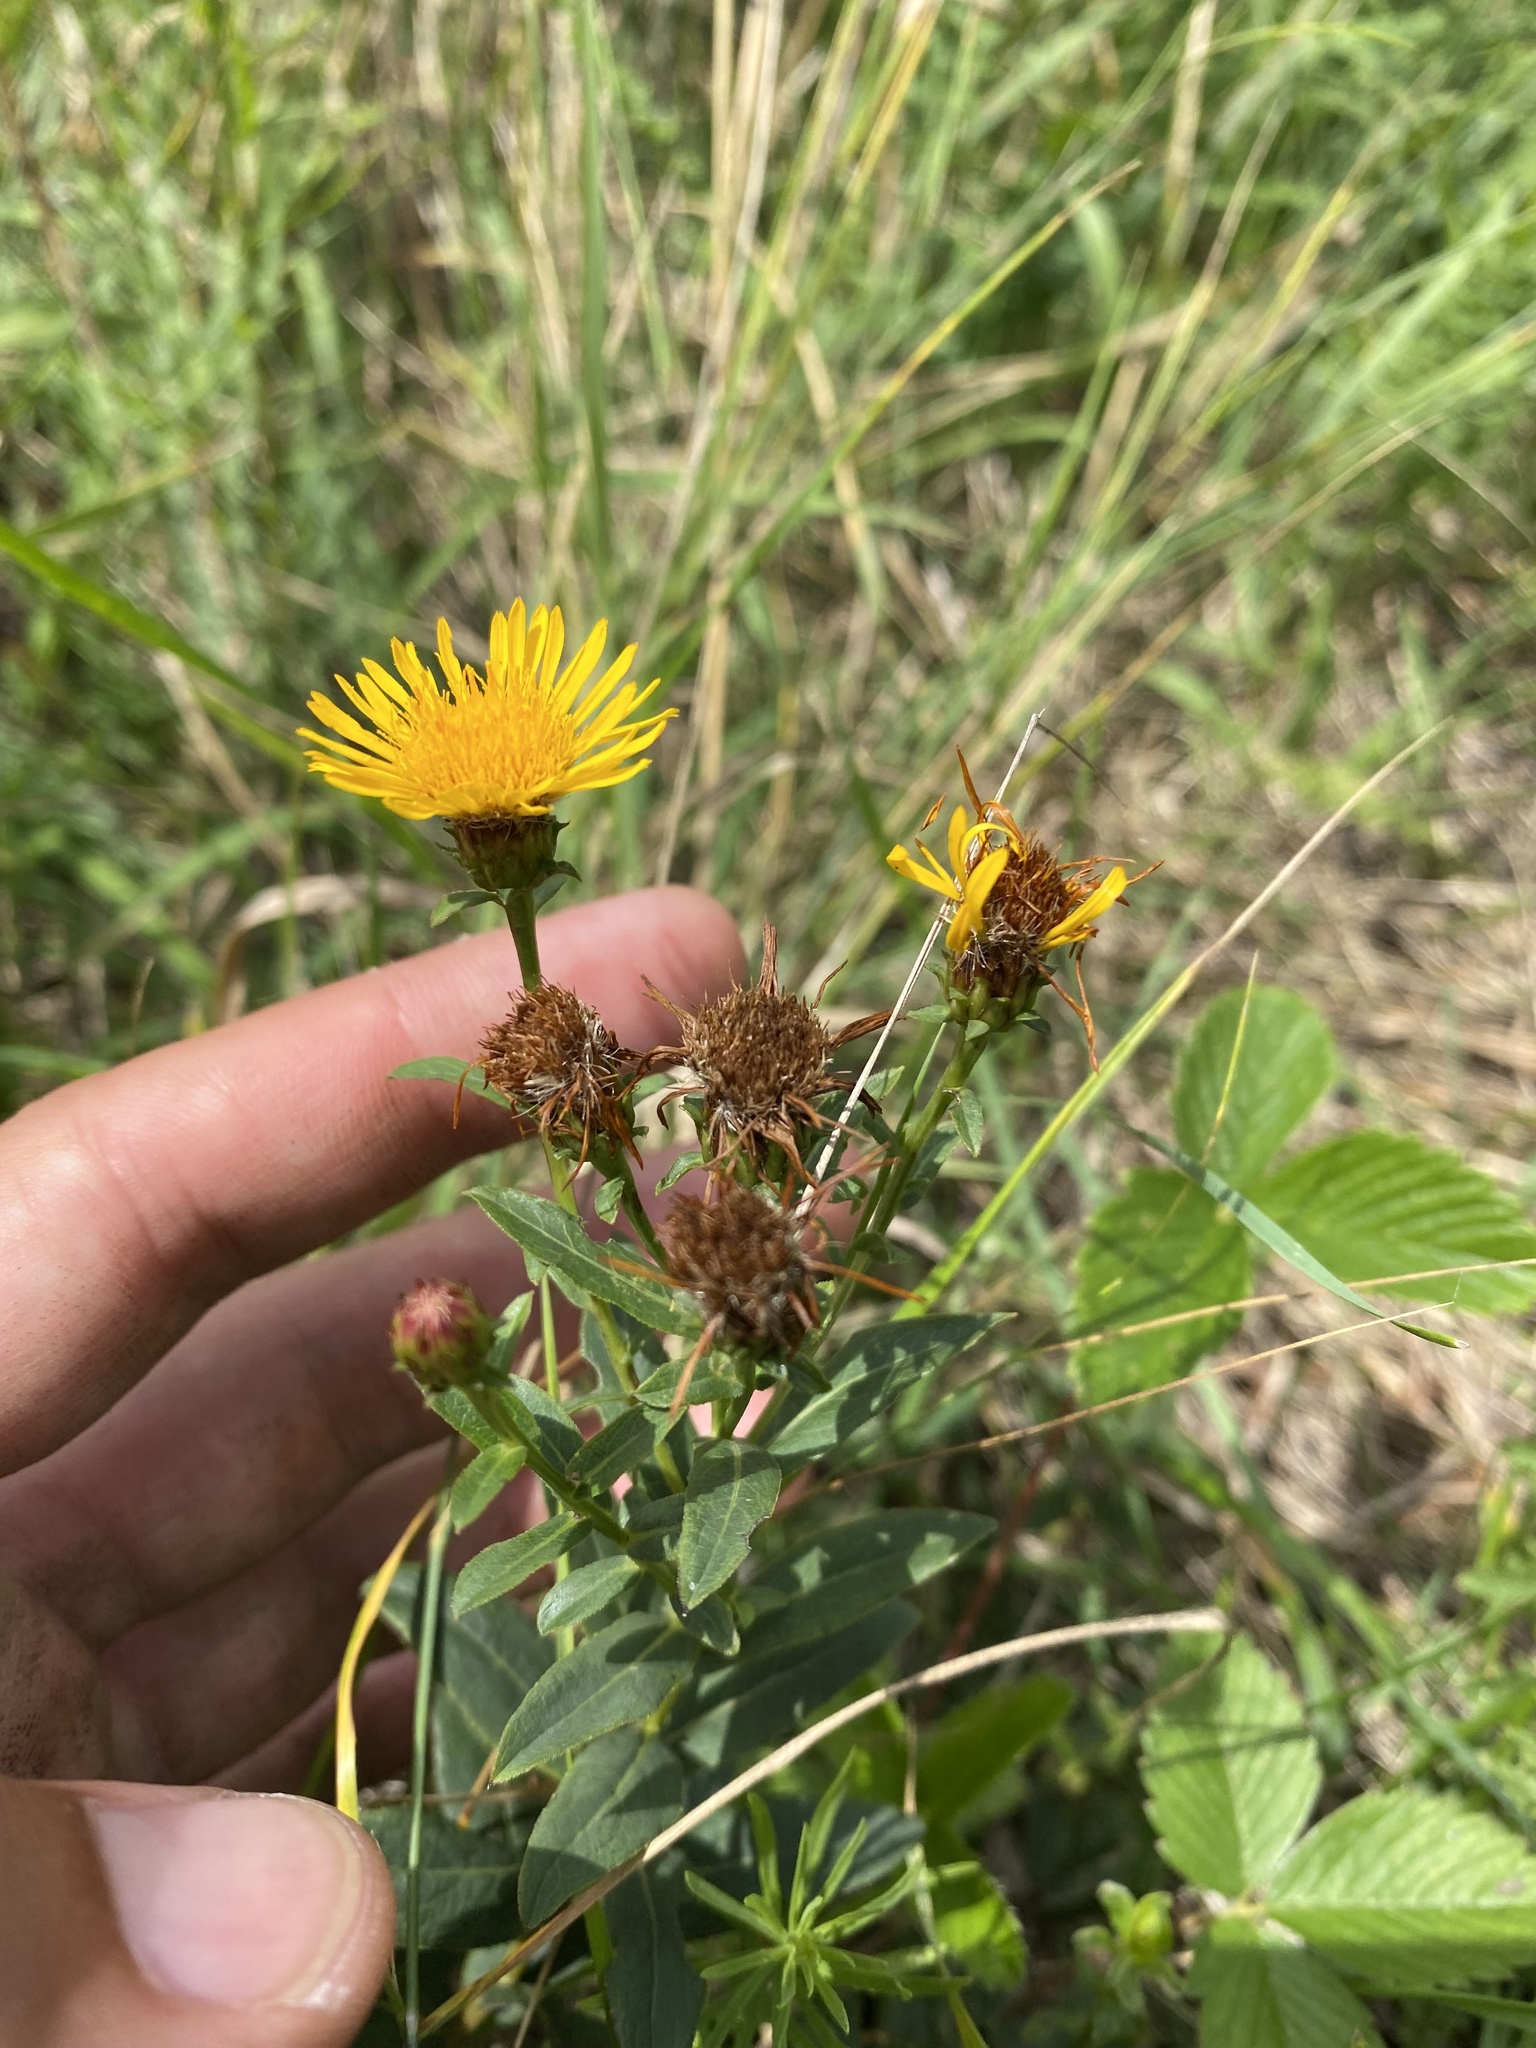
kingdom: Plantae
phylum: Tracheophyta
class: Magnoliopsida
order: Asterales
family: Asteraceae
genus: Pentanema
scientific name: Pentanema asperum
